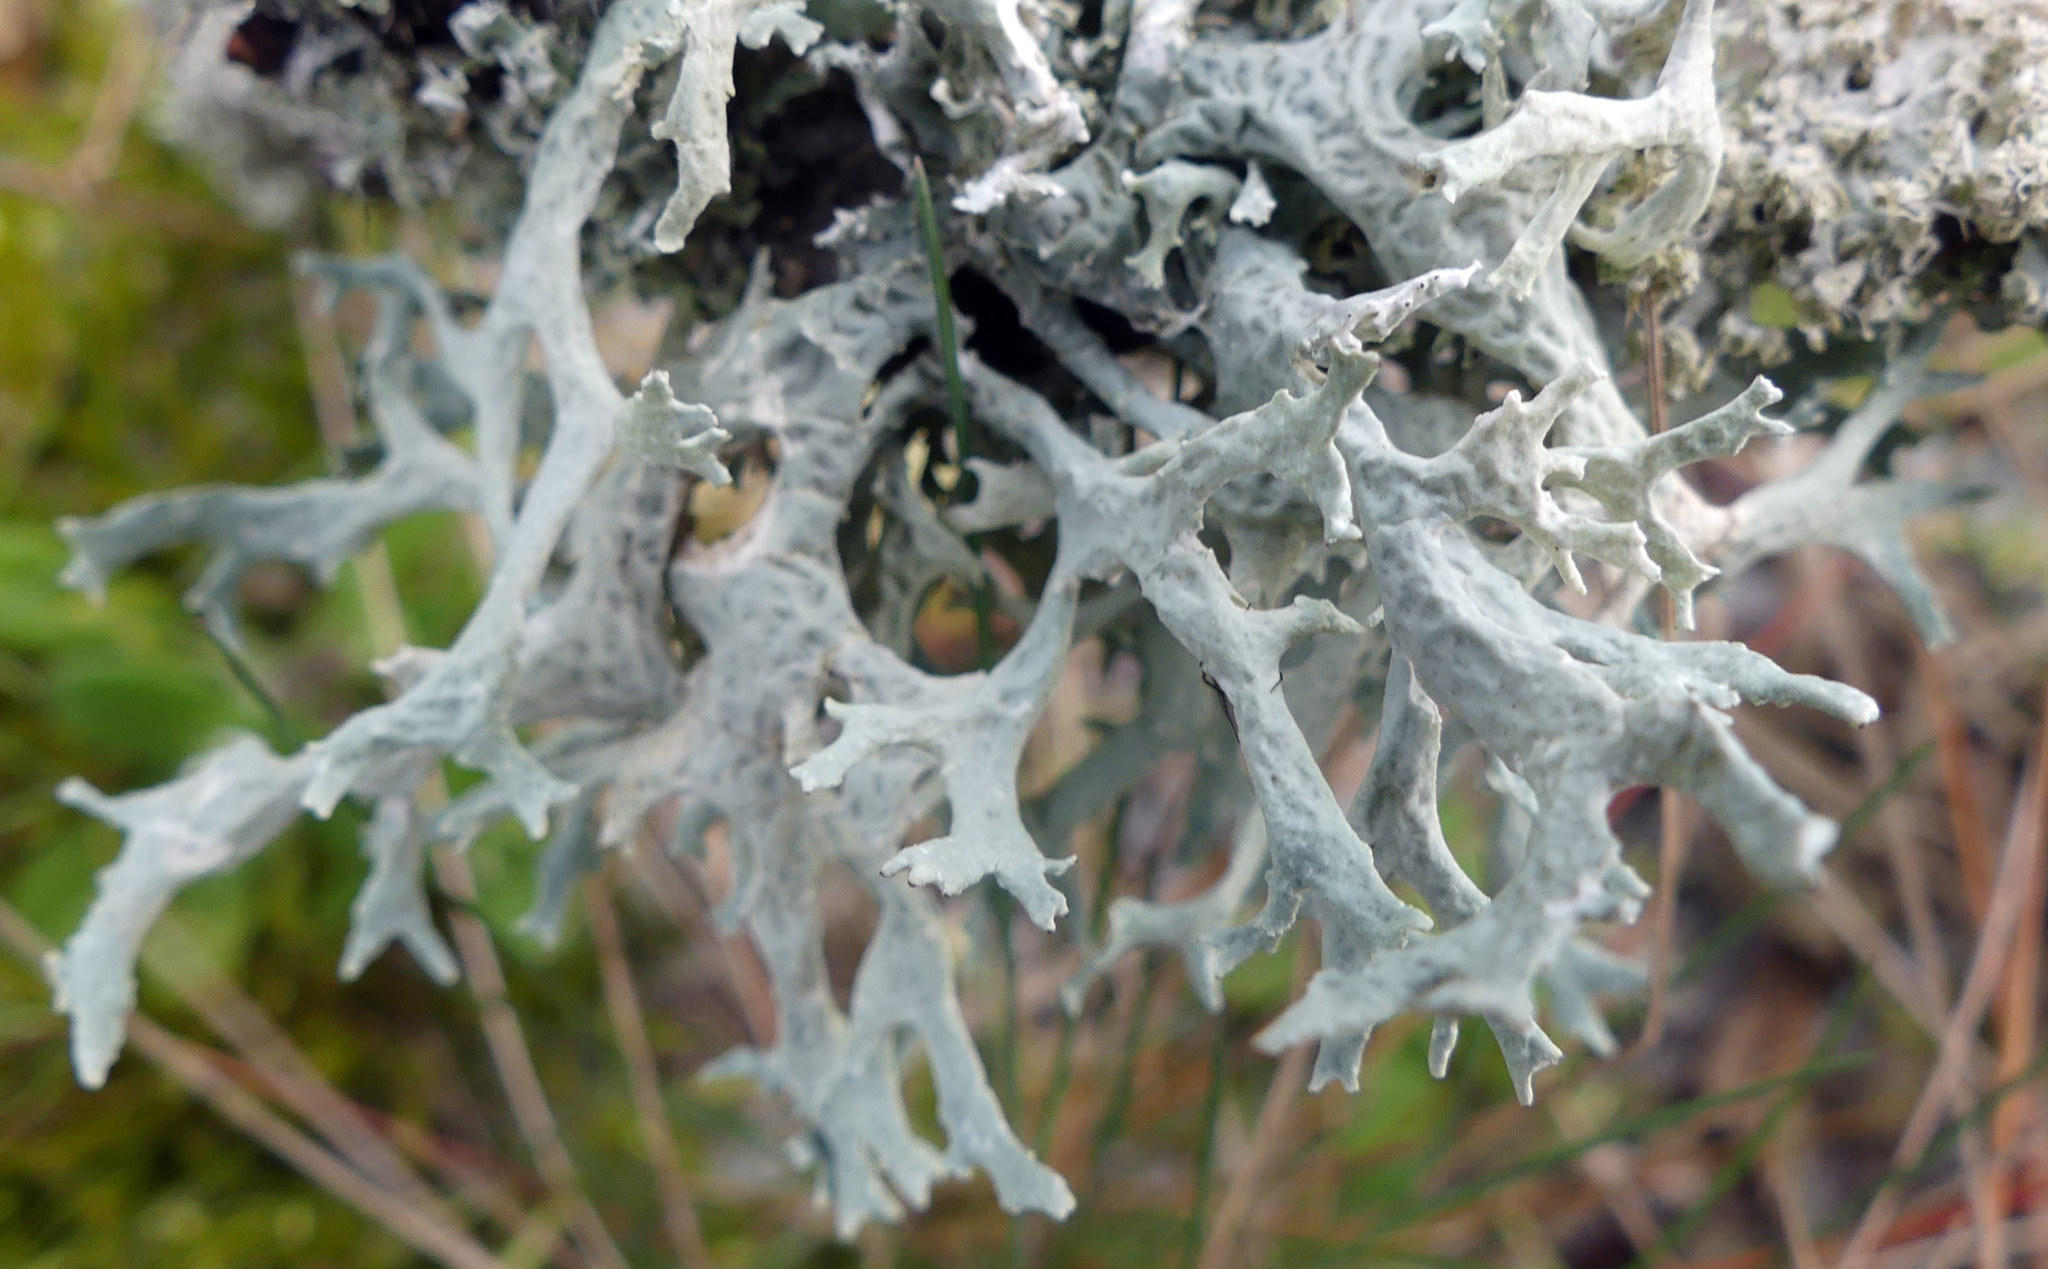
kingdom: Fungi
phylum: Ascomycota
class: Lecanoromycetes
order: Lecanorales
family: Parmeliaceae
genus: Evernia
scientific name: Evernia prunastri
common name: Oak moss
